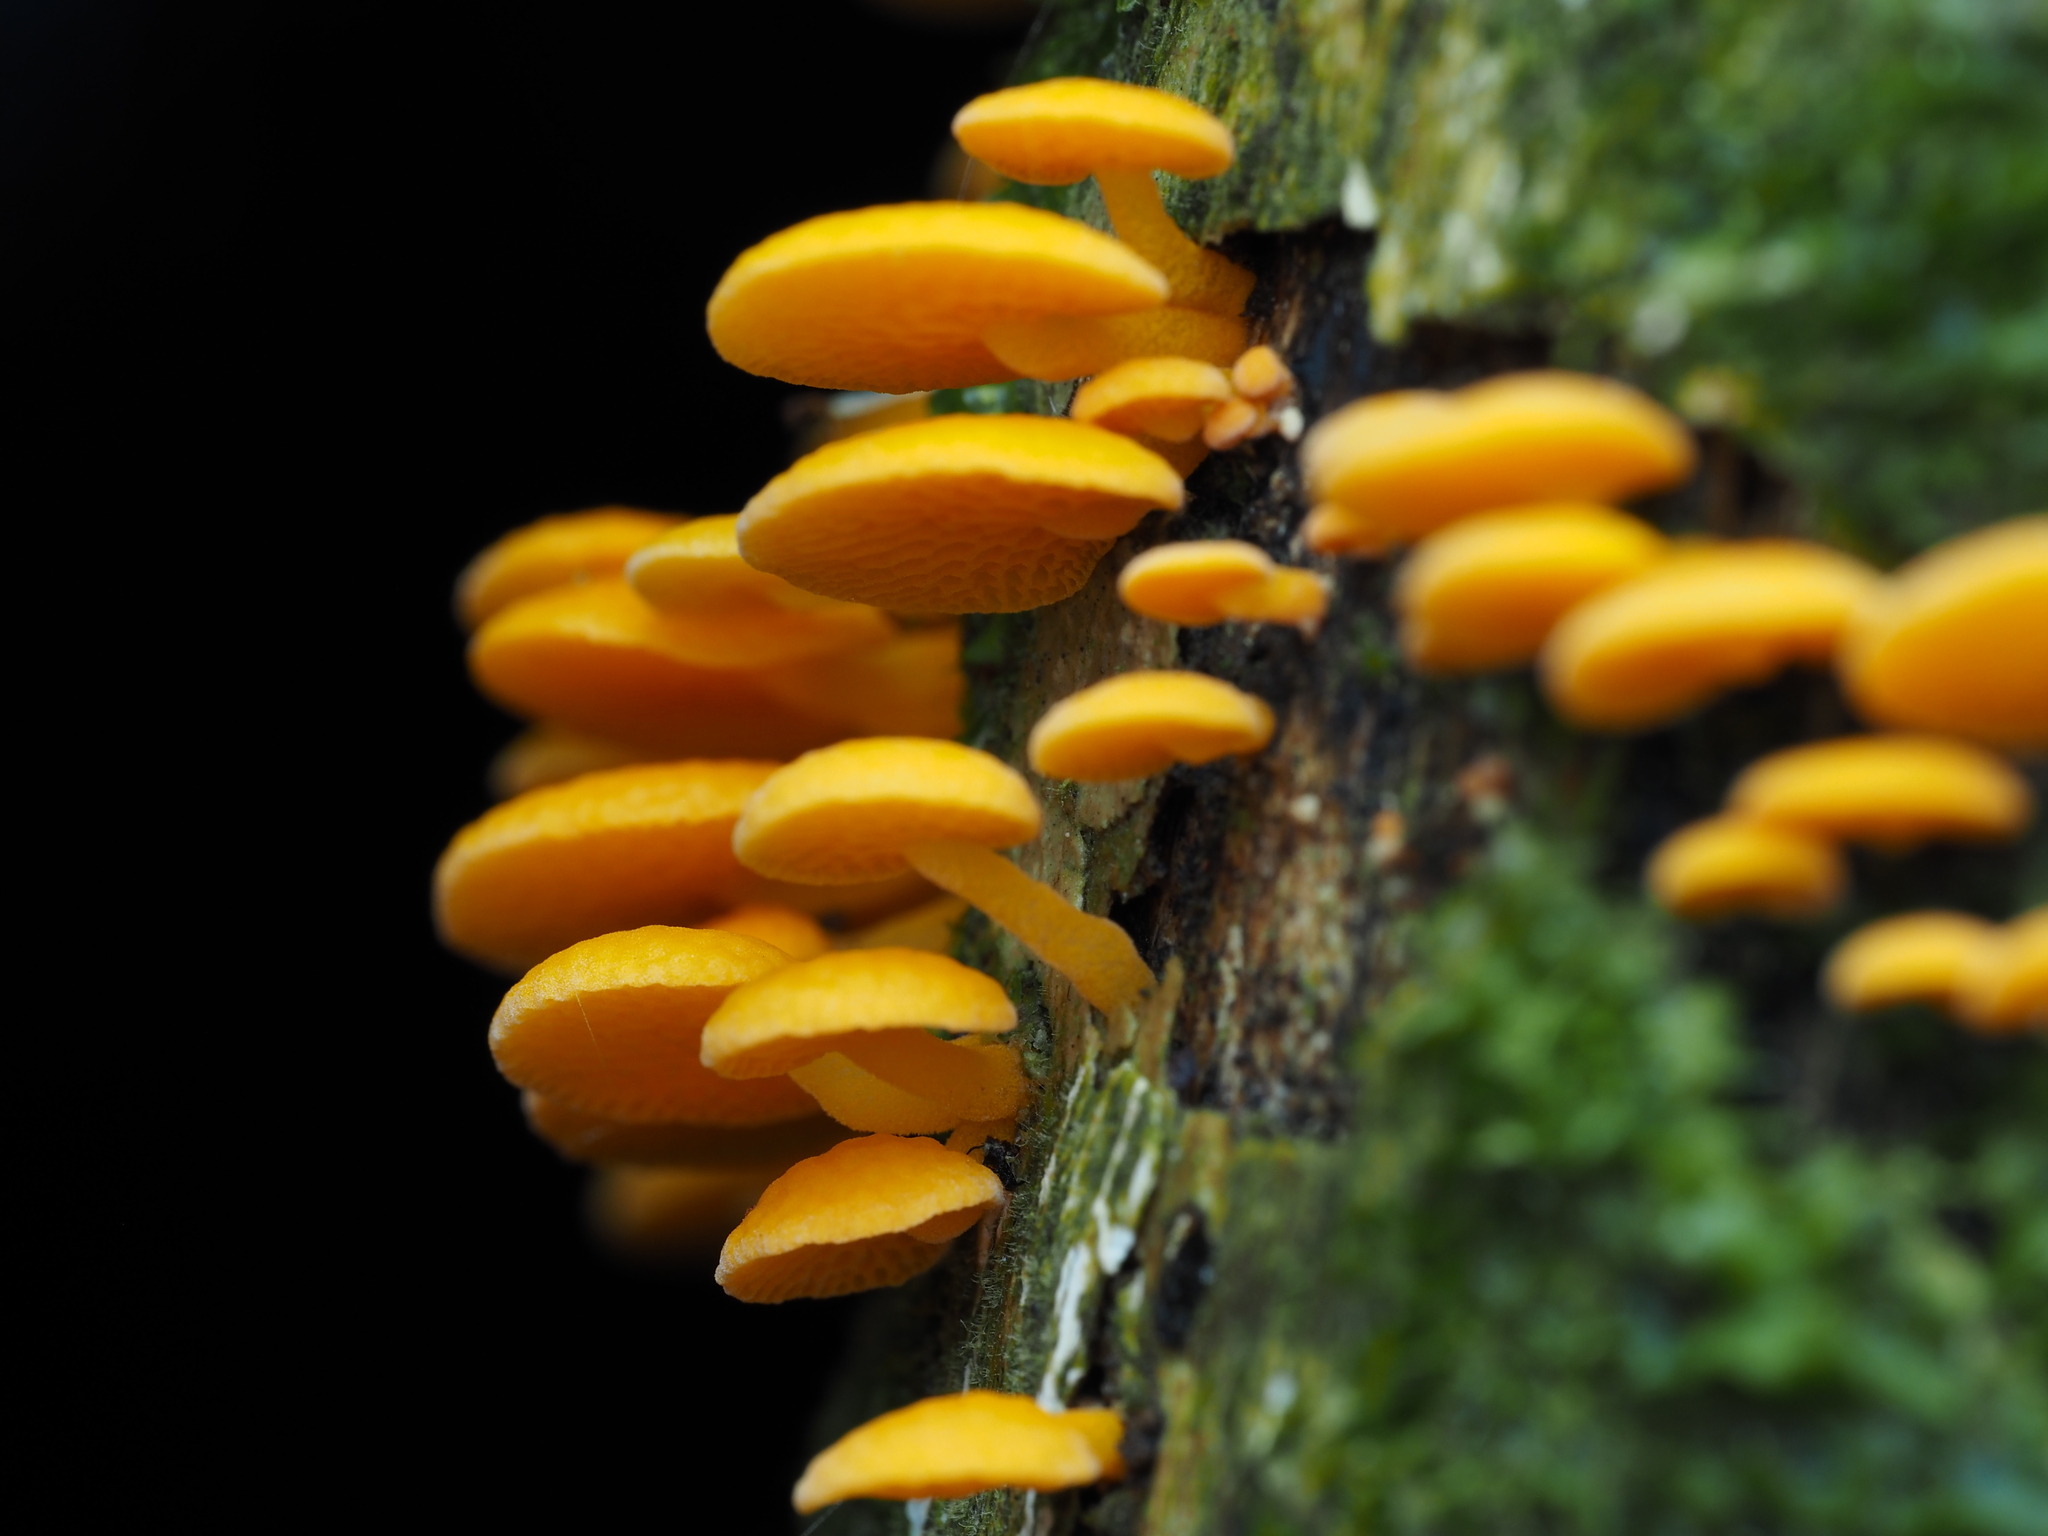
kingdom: Fungi
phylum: Basidiomycota
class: Agaricomycetes
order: Agaricales
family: Mycenaceae
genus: Favolaschia
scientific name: Favolaschia claudopus
